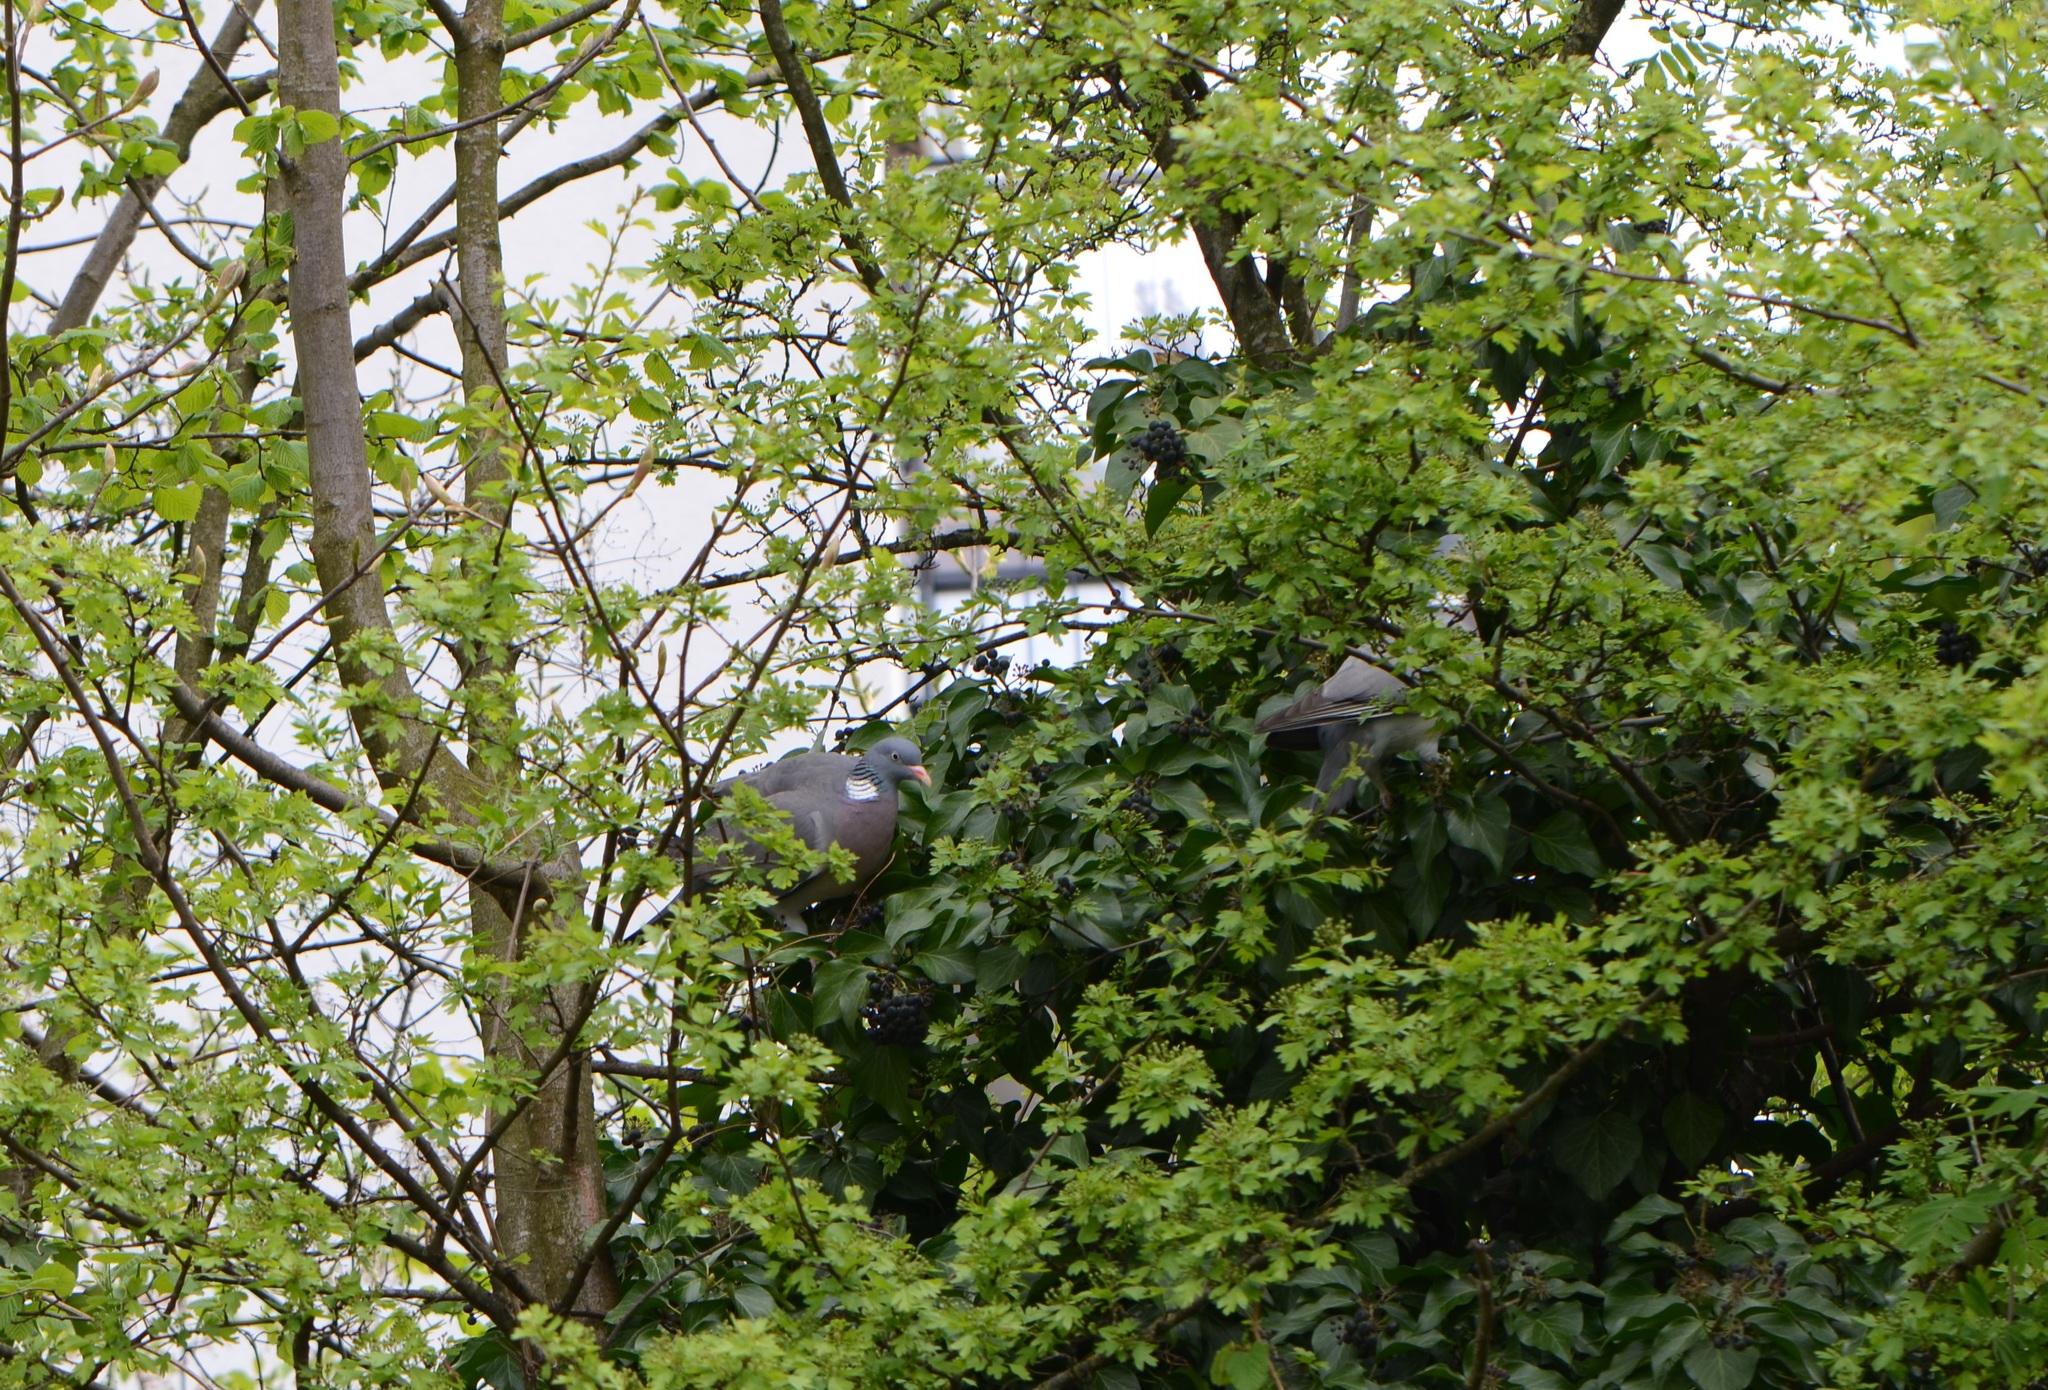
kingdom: Plantae
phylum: Tracheophyta
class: Magnoliopsida
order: Rosales
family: Rosaceae
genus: Crataegus
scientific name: Crataegus monogyna
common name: Hawthorn
